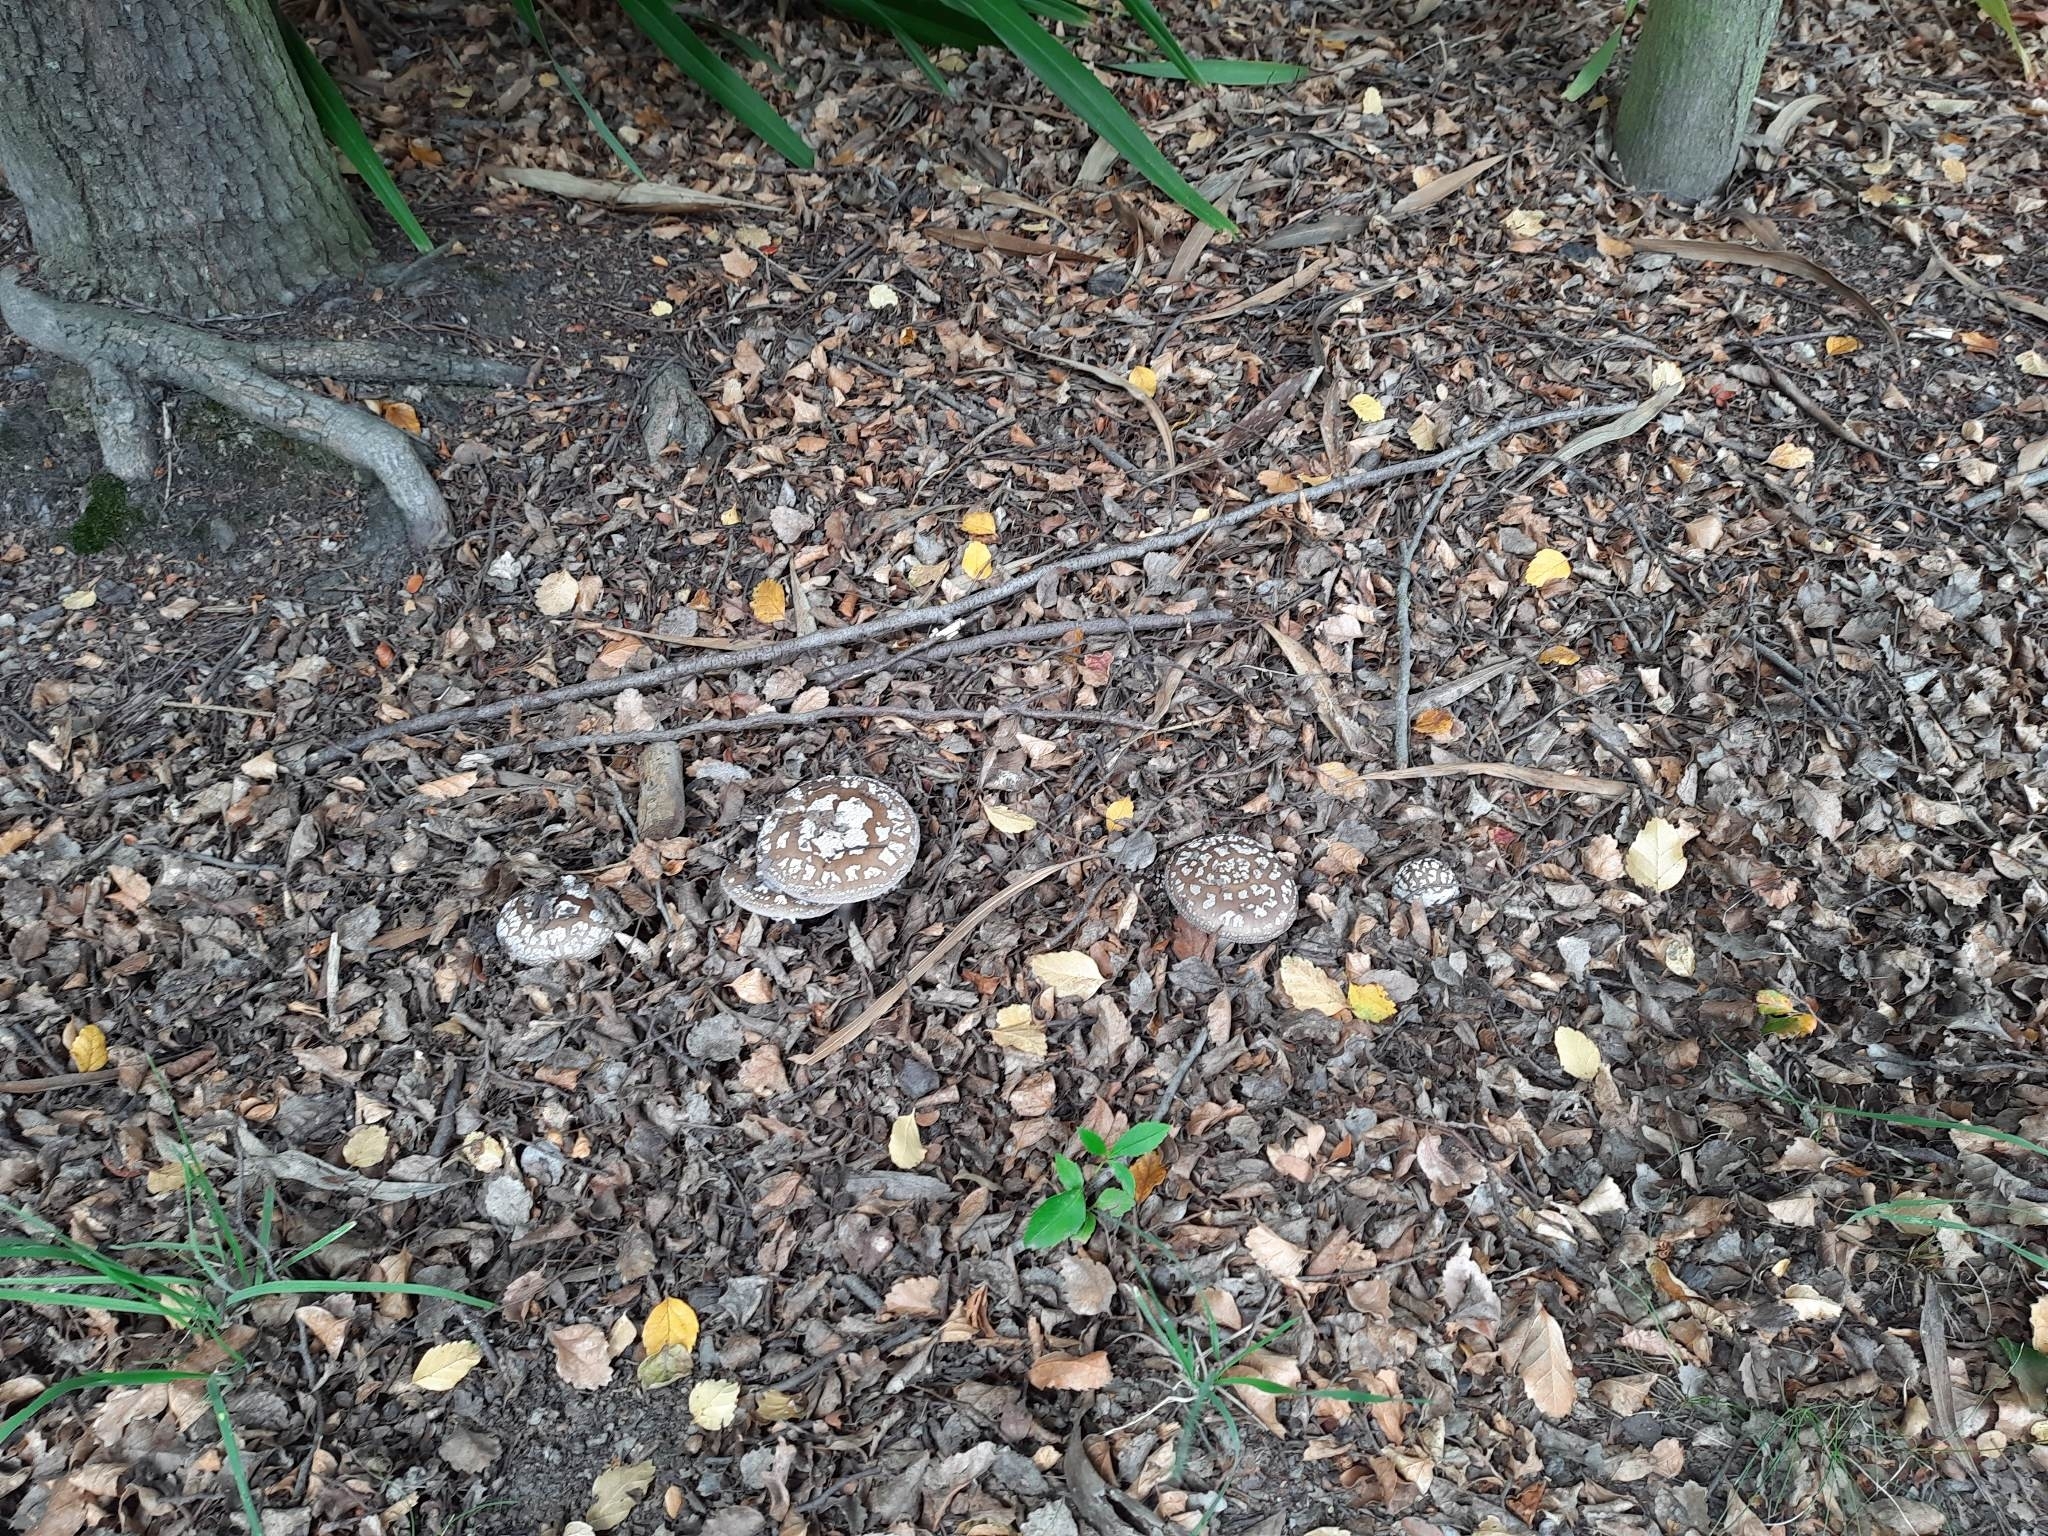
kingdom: Fungi
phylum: Basidiomycota
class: Agaricomycetes
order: Agaricales
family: Amanitaceae
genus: Amanita
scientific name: Amanita nothofagi
